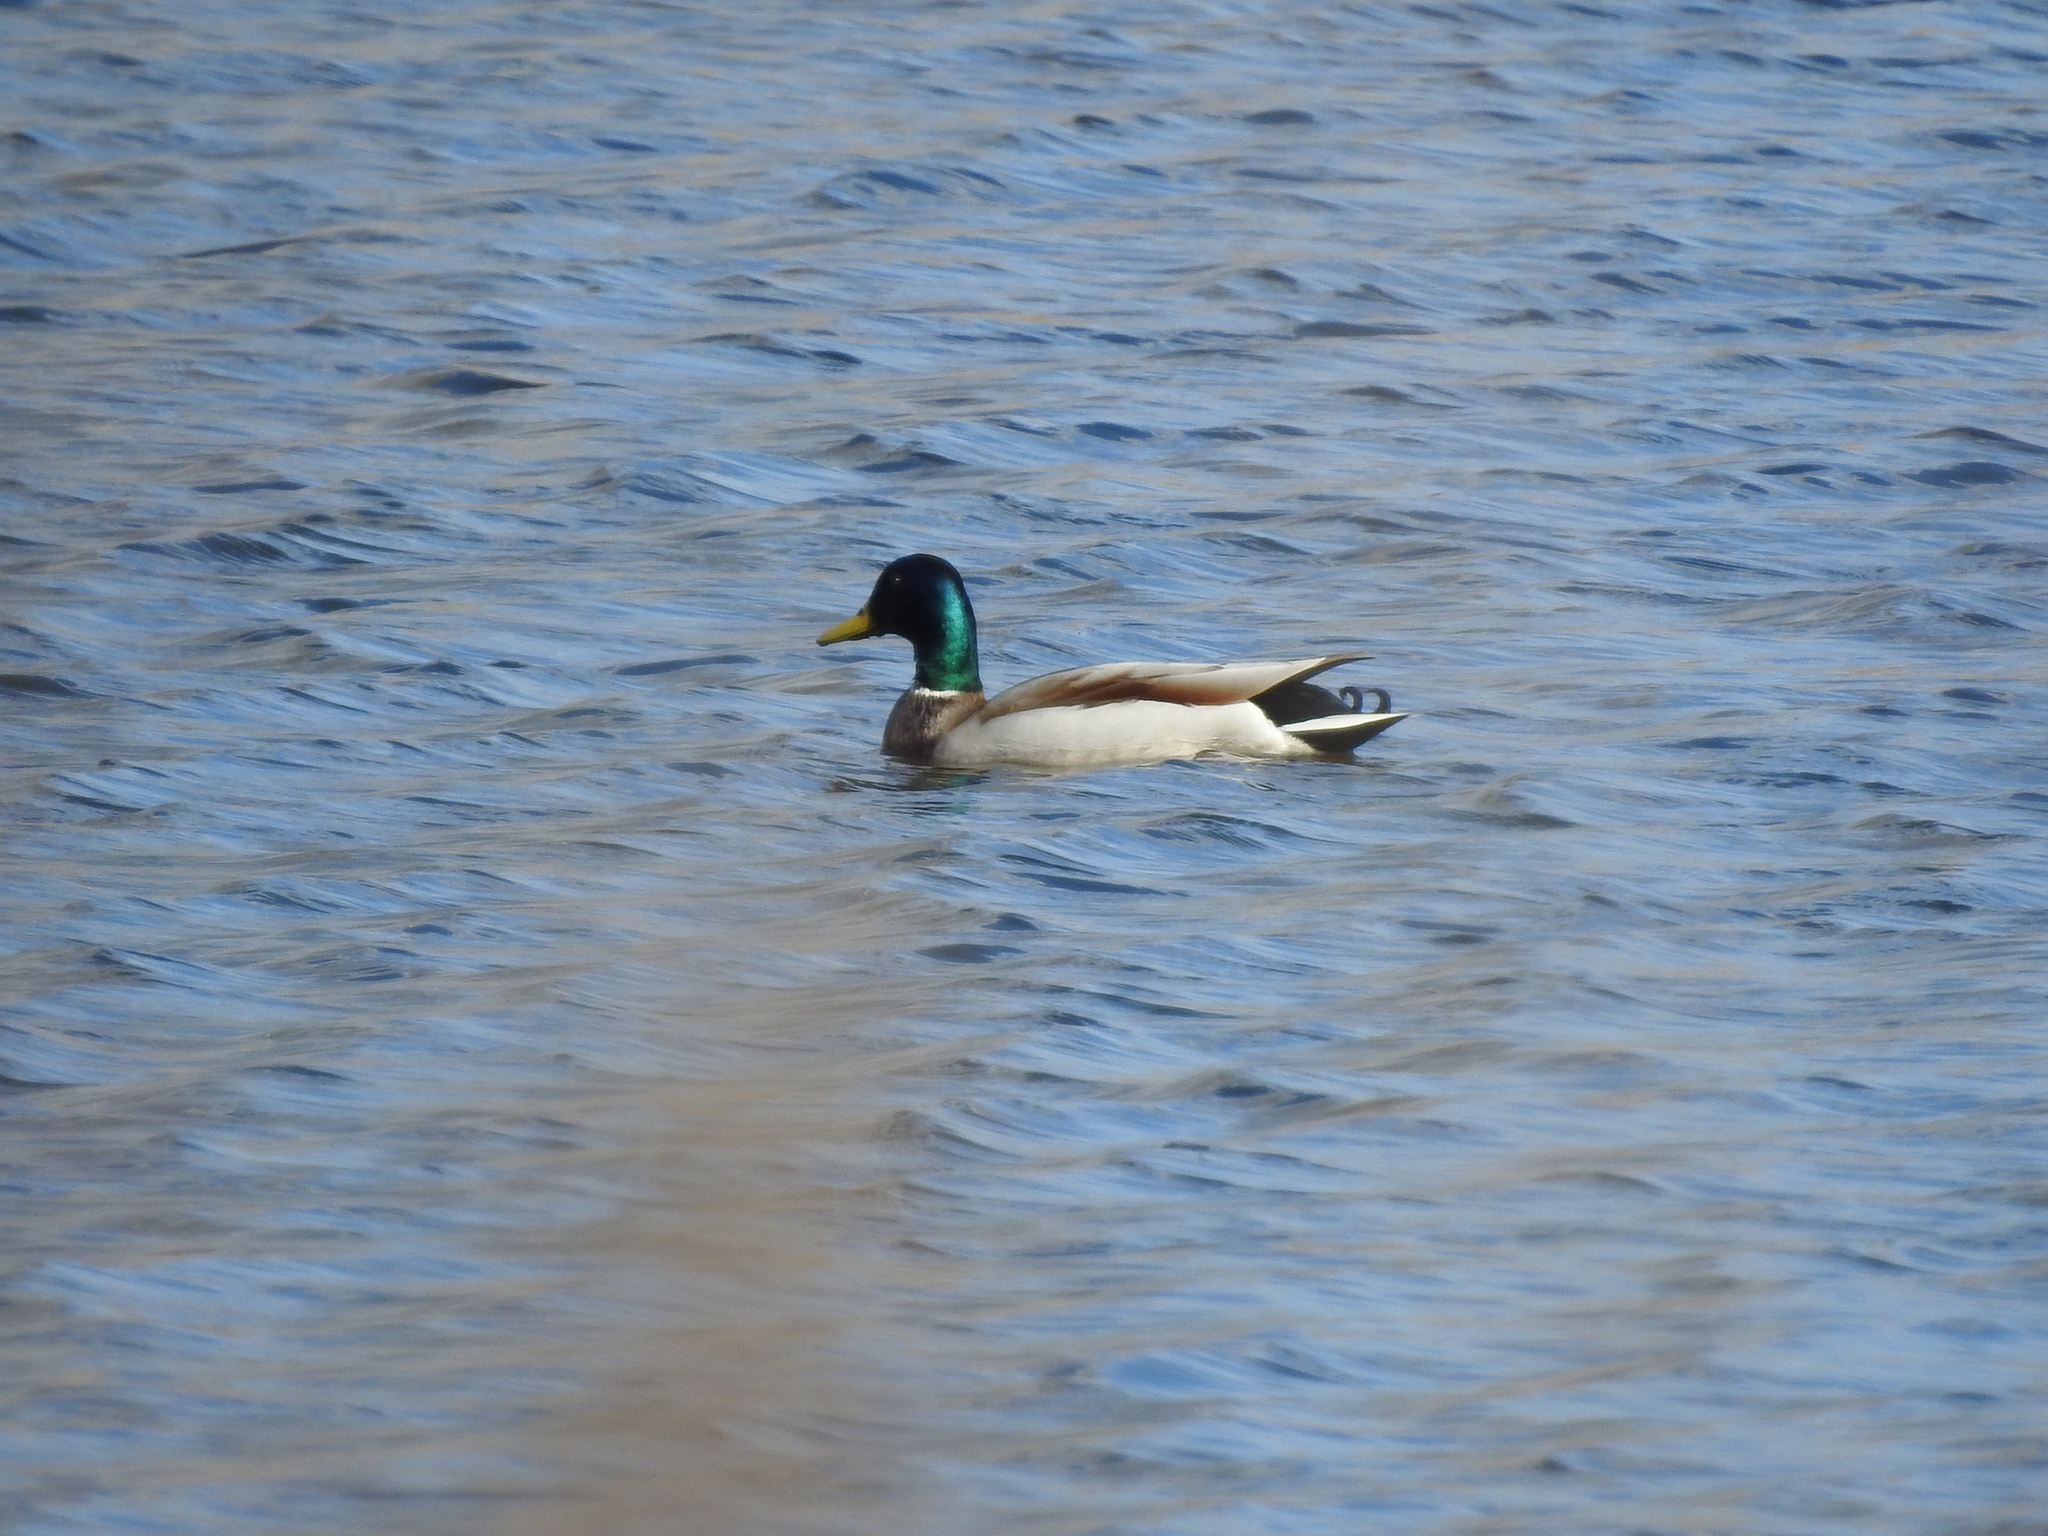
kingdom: Animalia
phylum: Chordata
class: Aves
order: Anseriformes
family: Anatidae
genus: Anas
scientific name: Anas platyrhynchos
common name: Mallard
